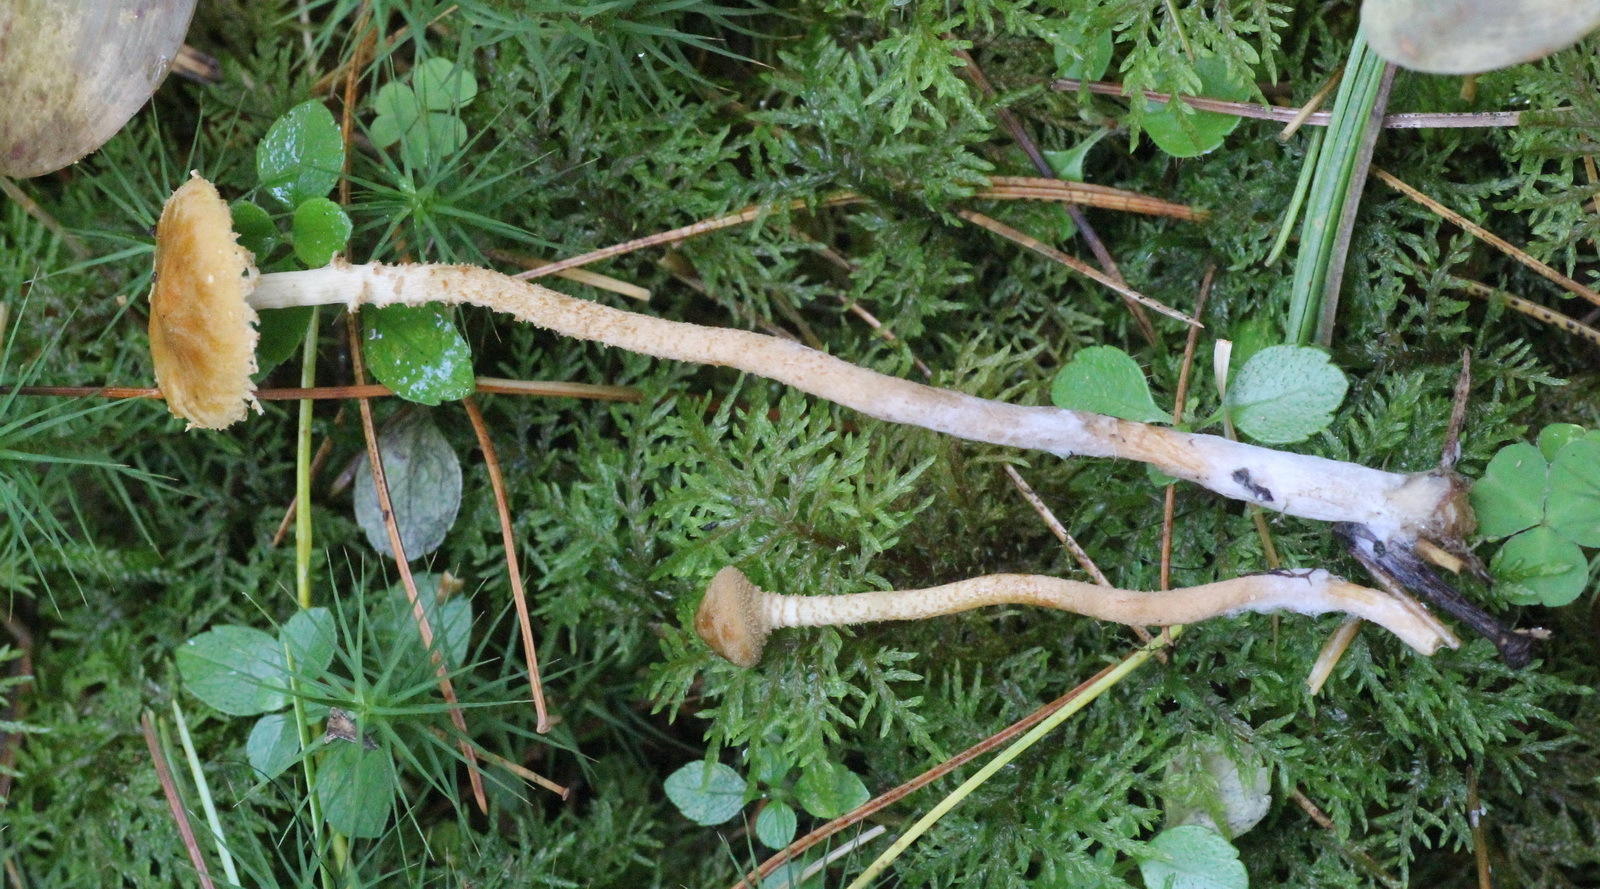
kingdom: Fungi
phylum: Basidiomycota
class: Agaricomycetes
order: Agaricales
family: Tricholomataceae
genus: Cystoderma
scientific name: Cystoderma amianthinum
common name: Earthy powdercap
